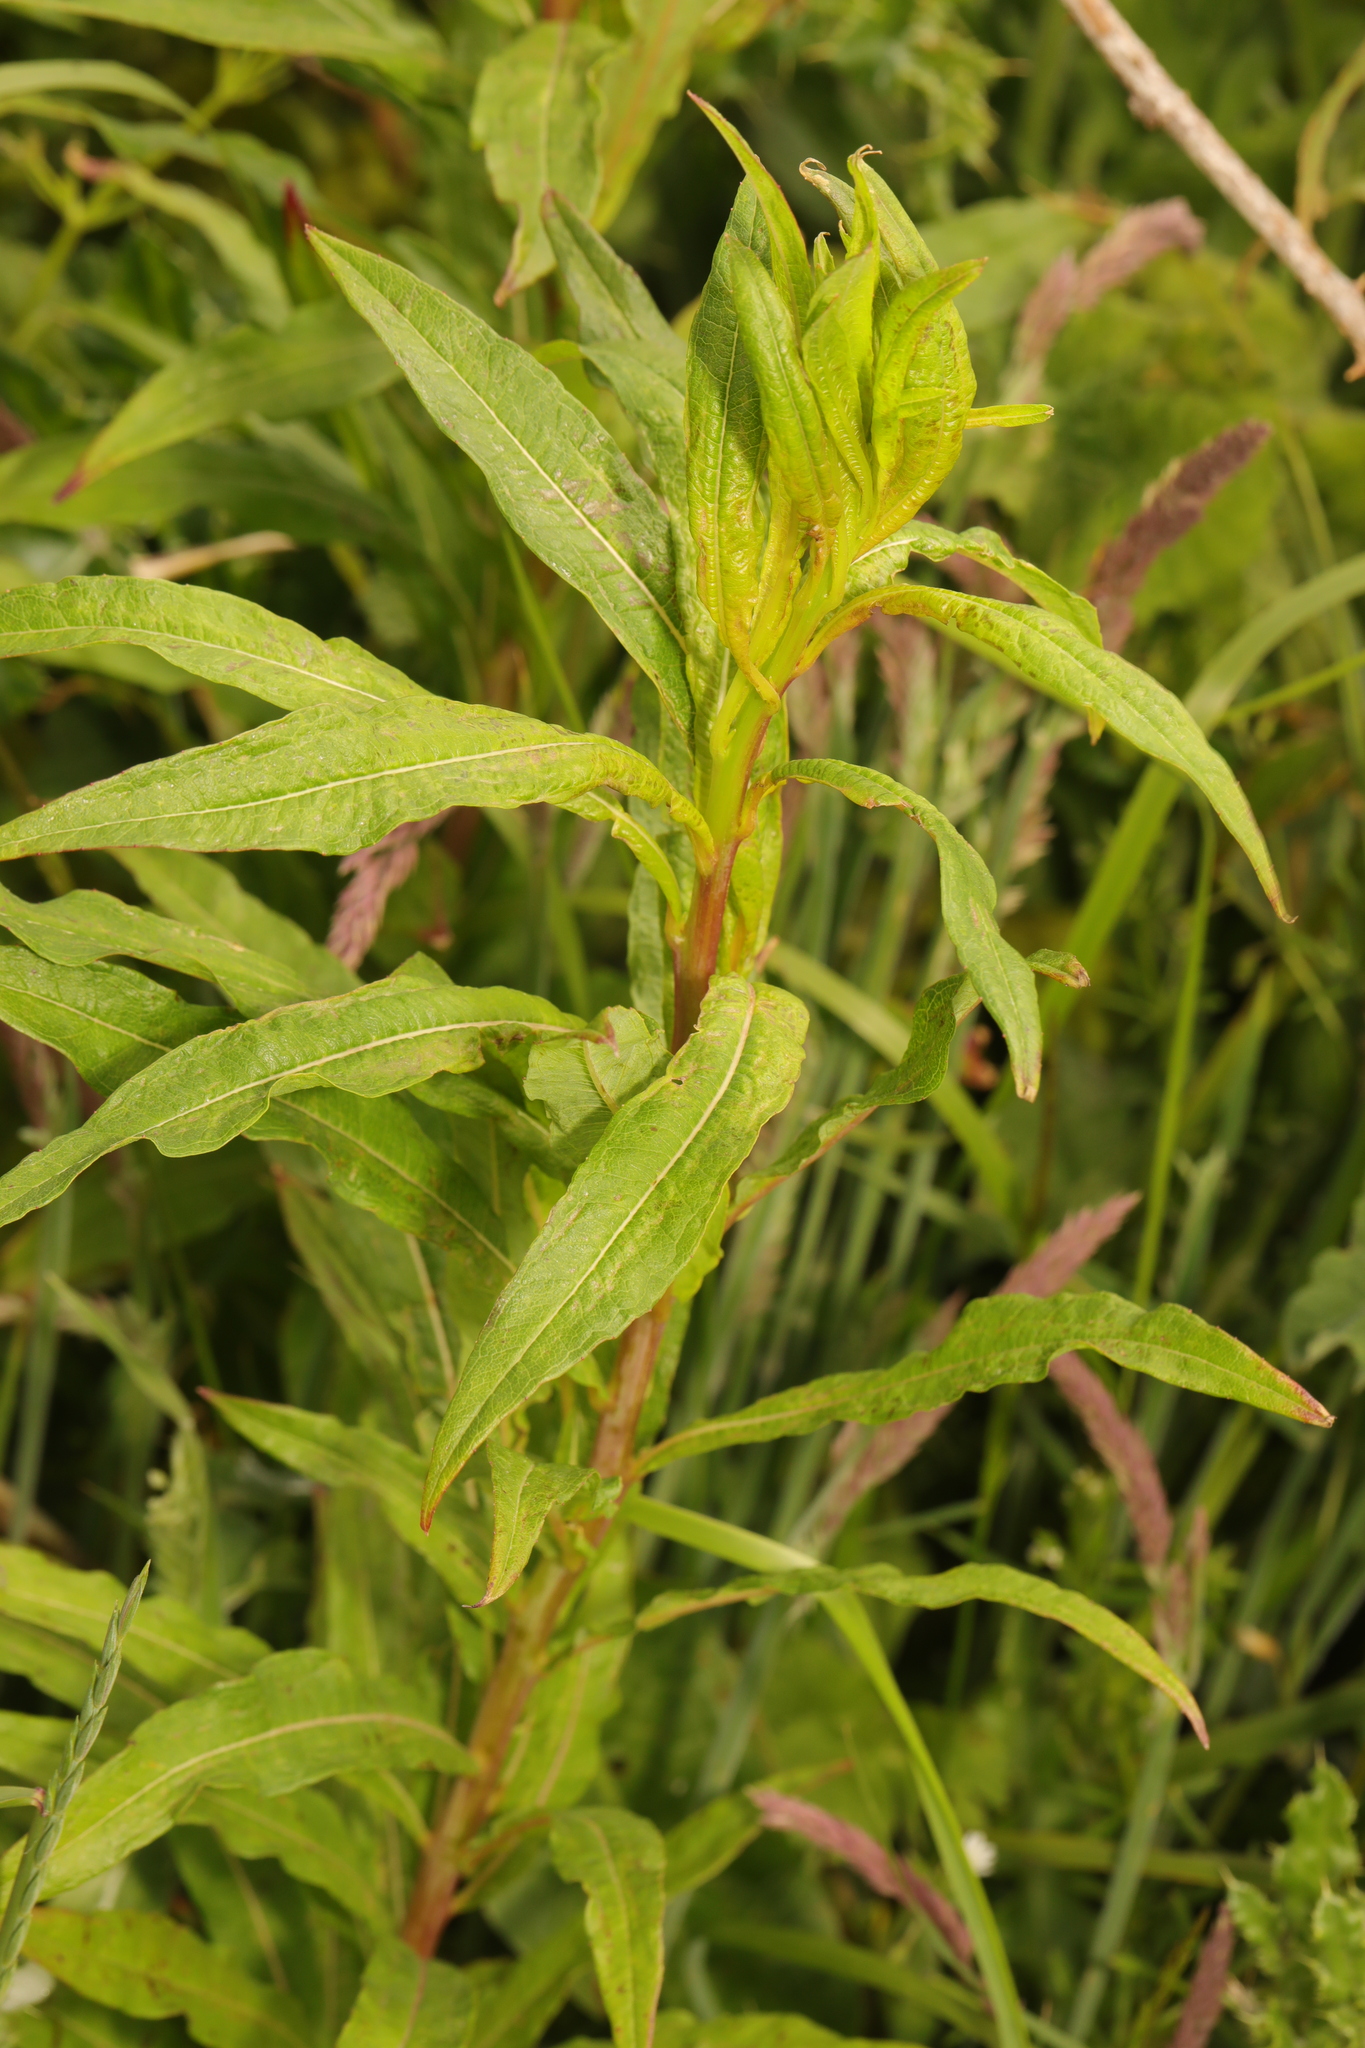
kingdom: Plantae
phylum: Tracheophyta
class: Magnoliopsida
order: Myrtales
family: Onagraceae
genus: Chamaenerion
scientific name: Chamaenerion angustifolium
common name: Fireweed
